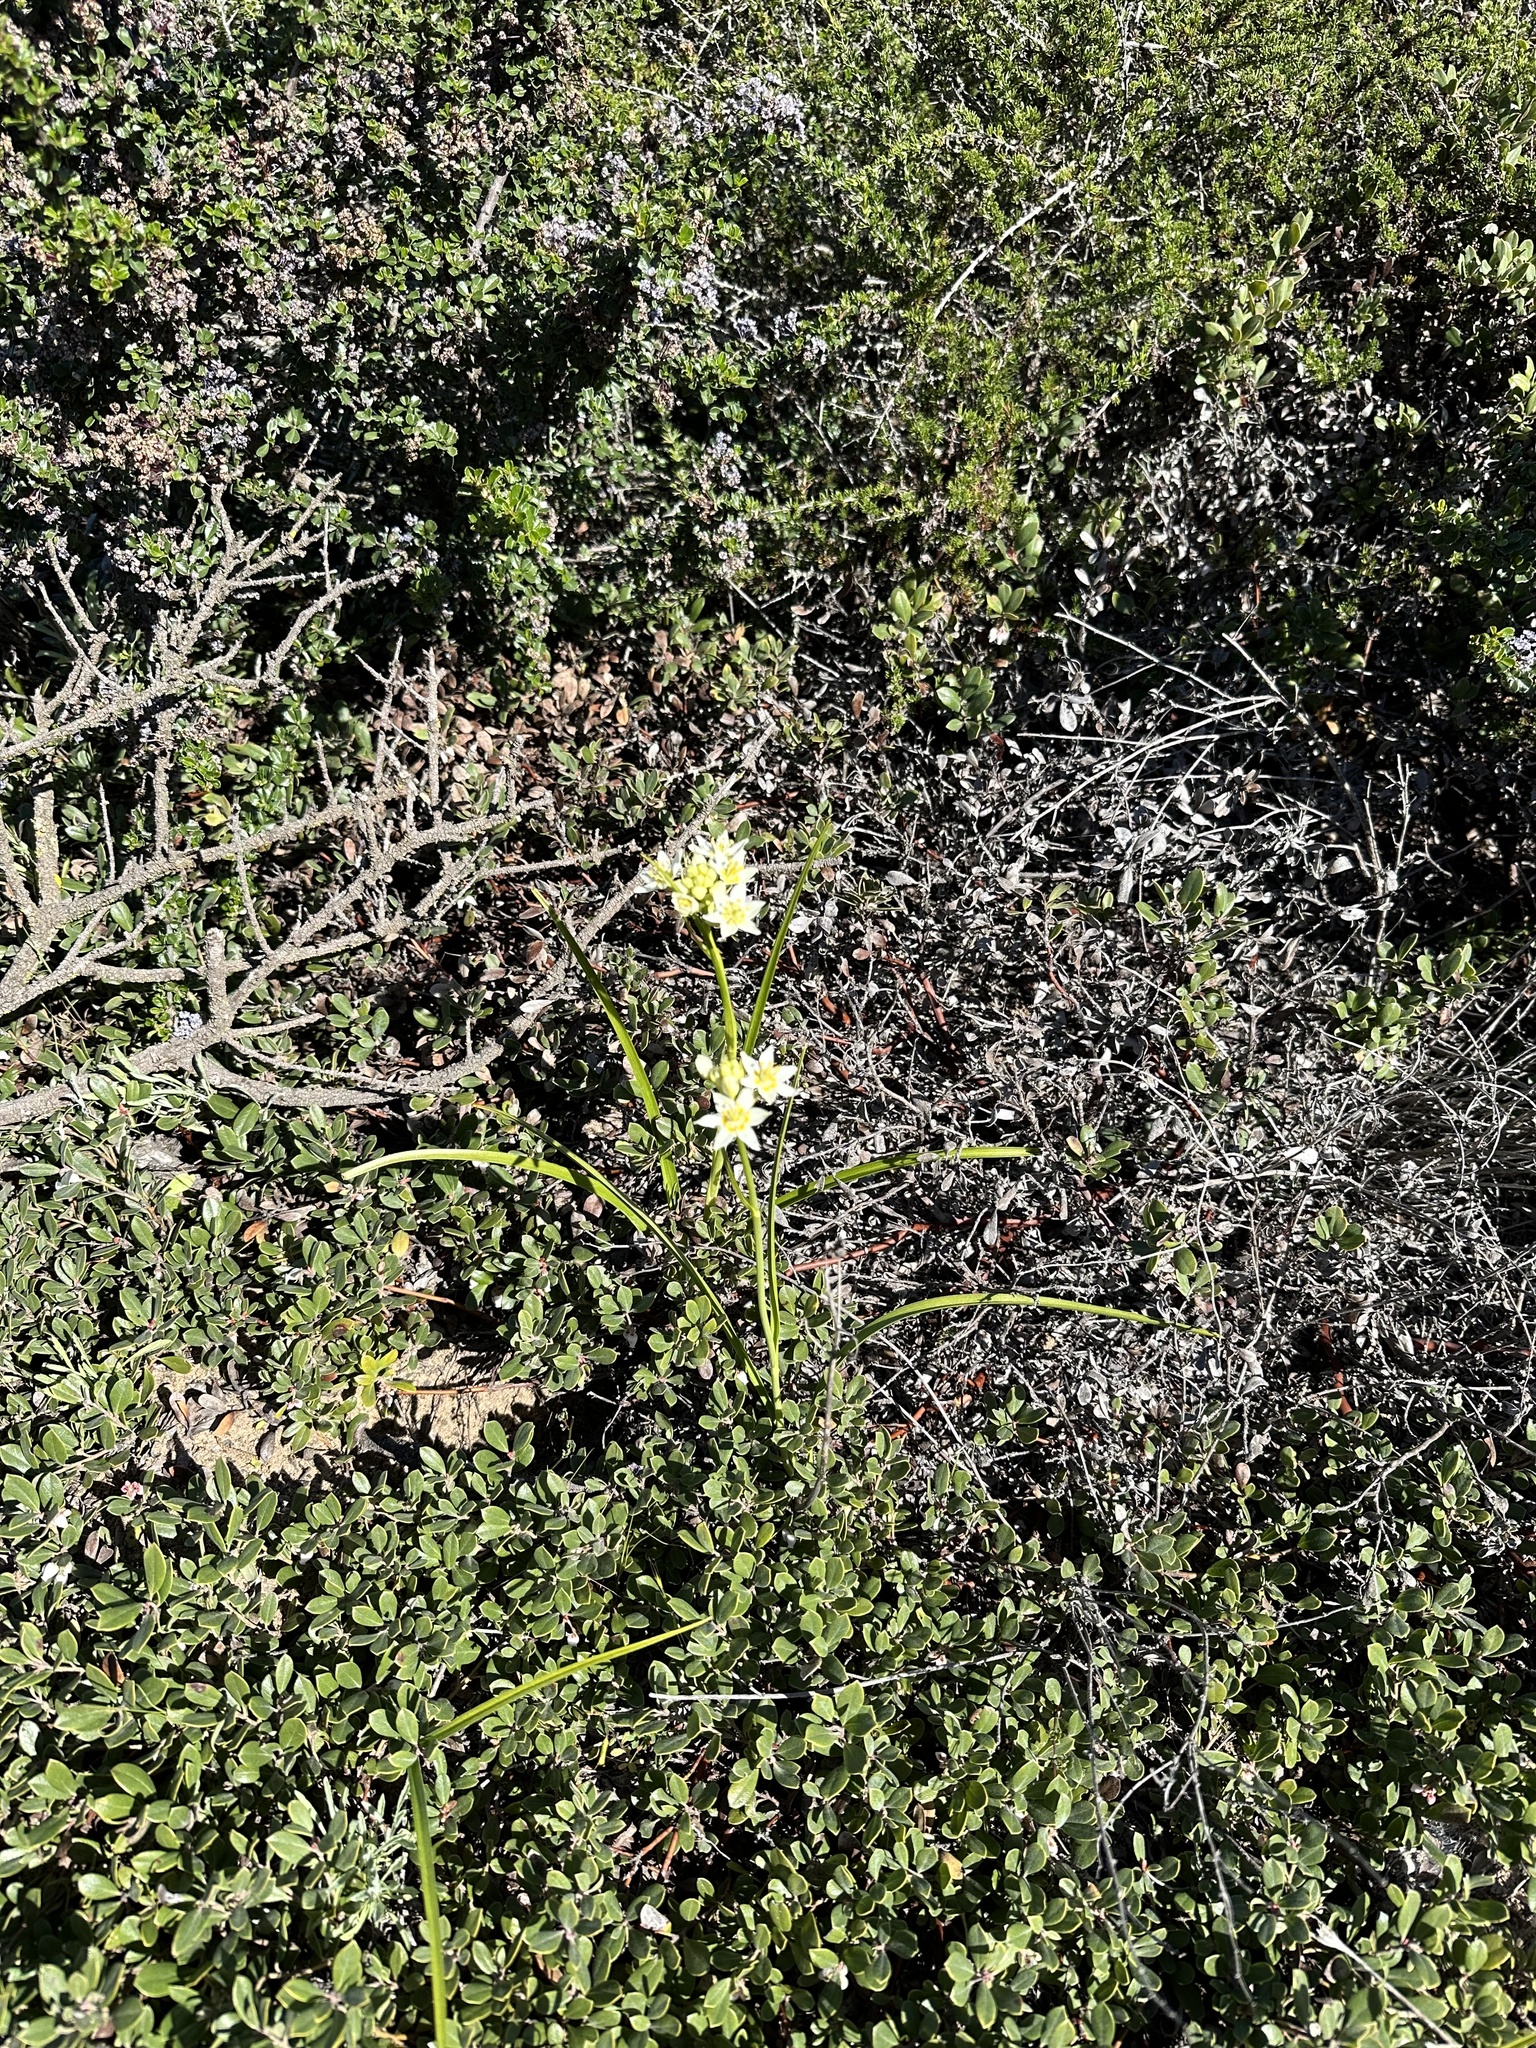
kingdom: Plantae
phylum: Tracheophyta
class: Liliopsida
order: Liliales
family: Melanthiaceae
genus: Toxicoscordion
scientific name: Toxicoscordion fremontii
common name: Fremont's death camas
